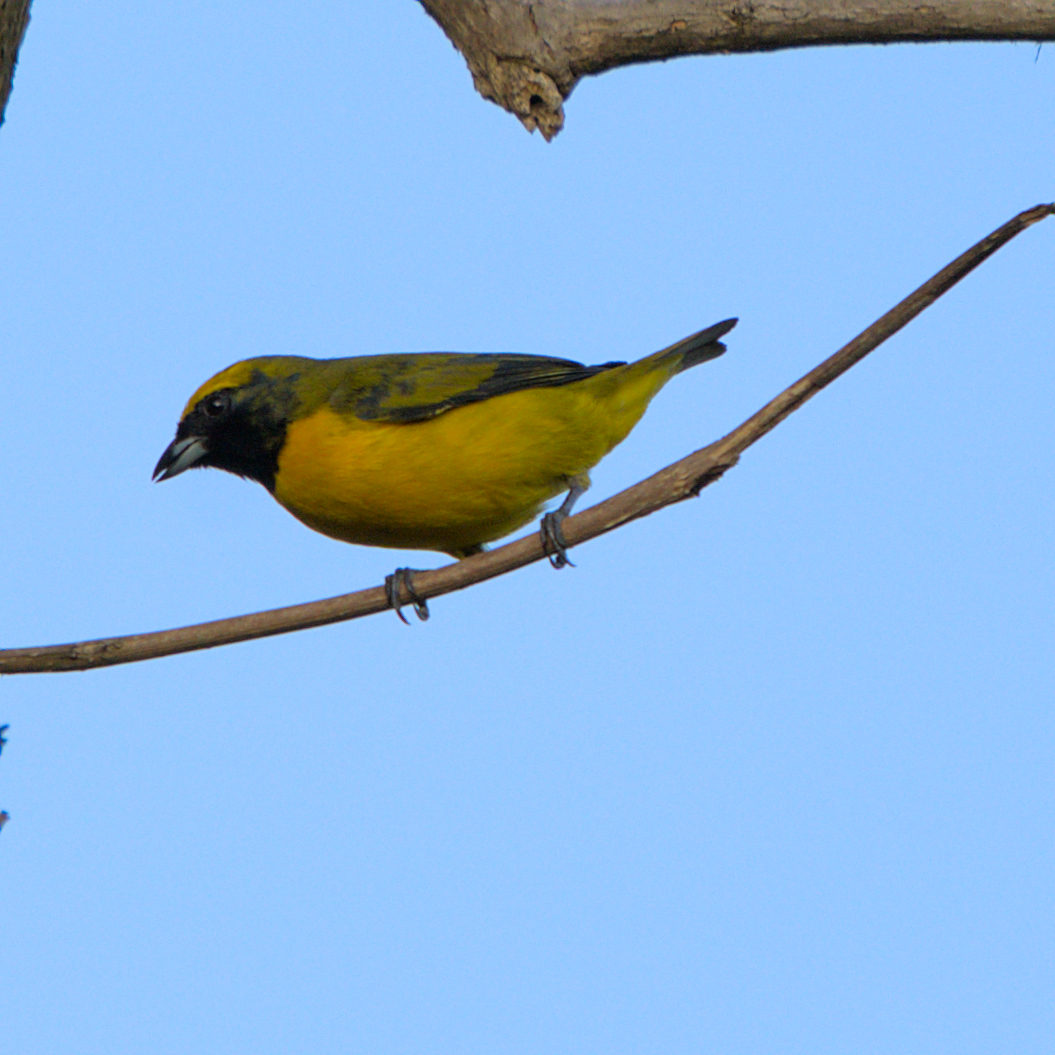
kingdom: Animalia
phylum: Chordata
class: Aves
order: Passeriformes
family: Fringillidae
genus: Euphonia
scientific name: Euphonia luteicapilla
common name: Yellow-crowned euphonia
